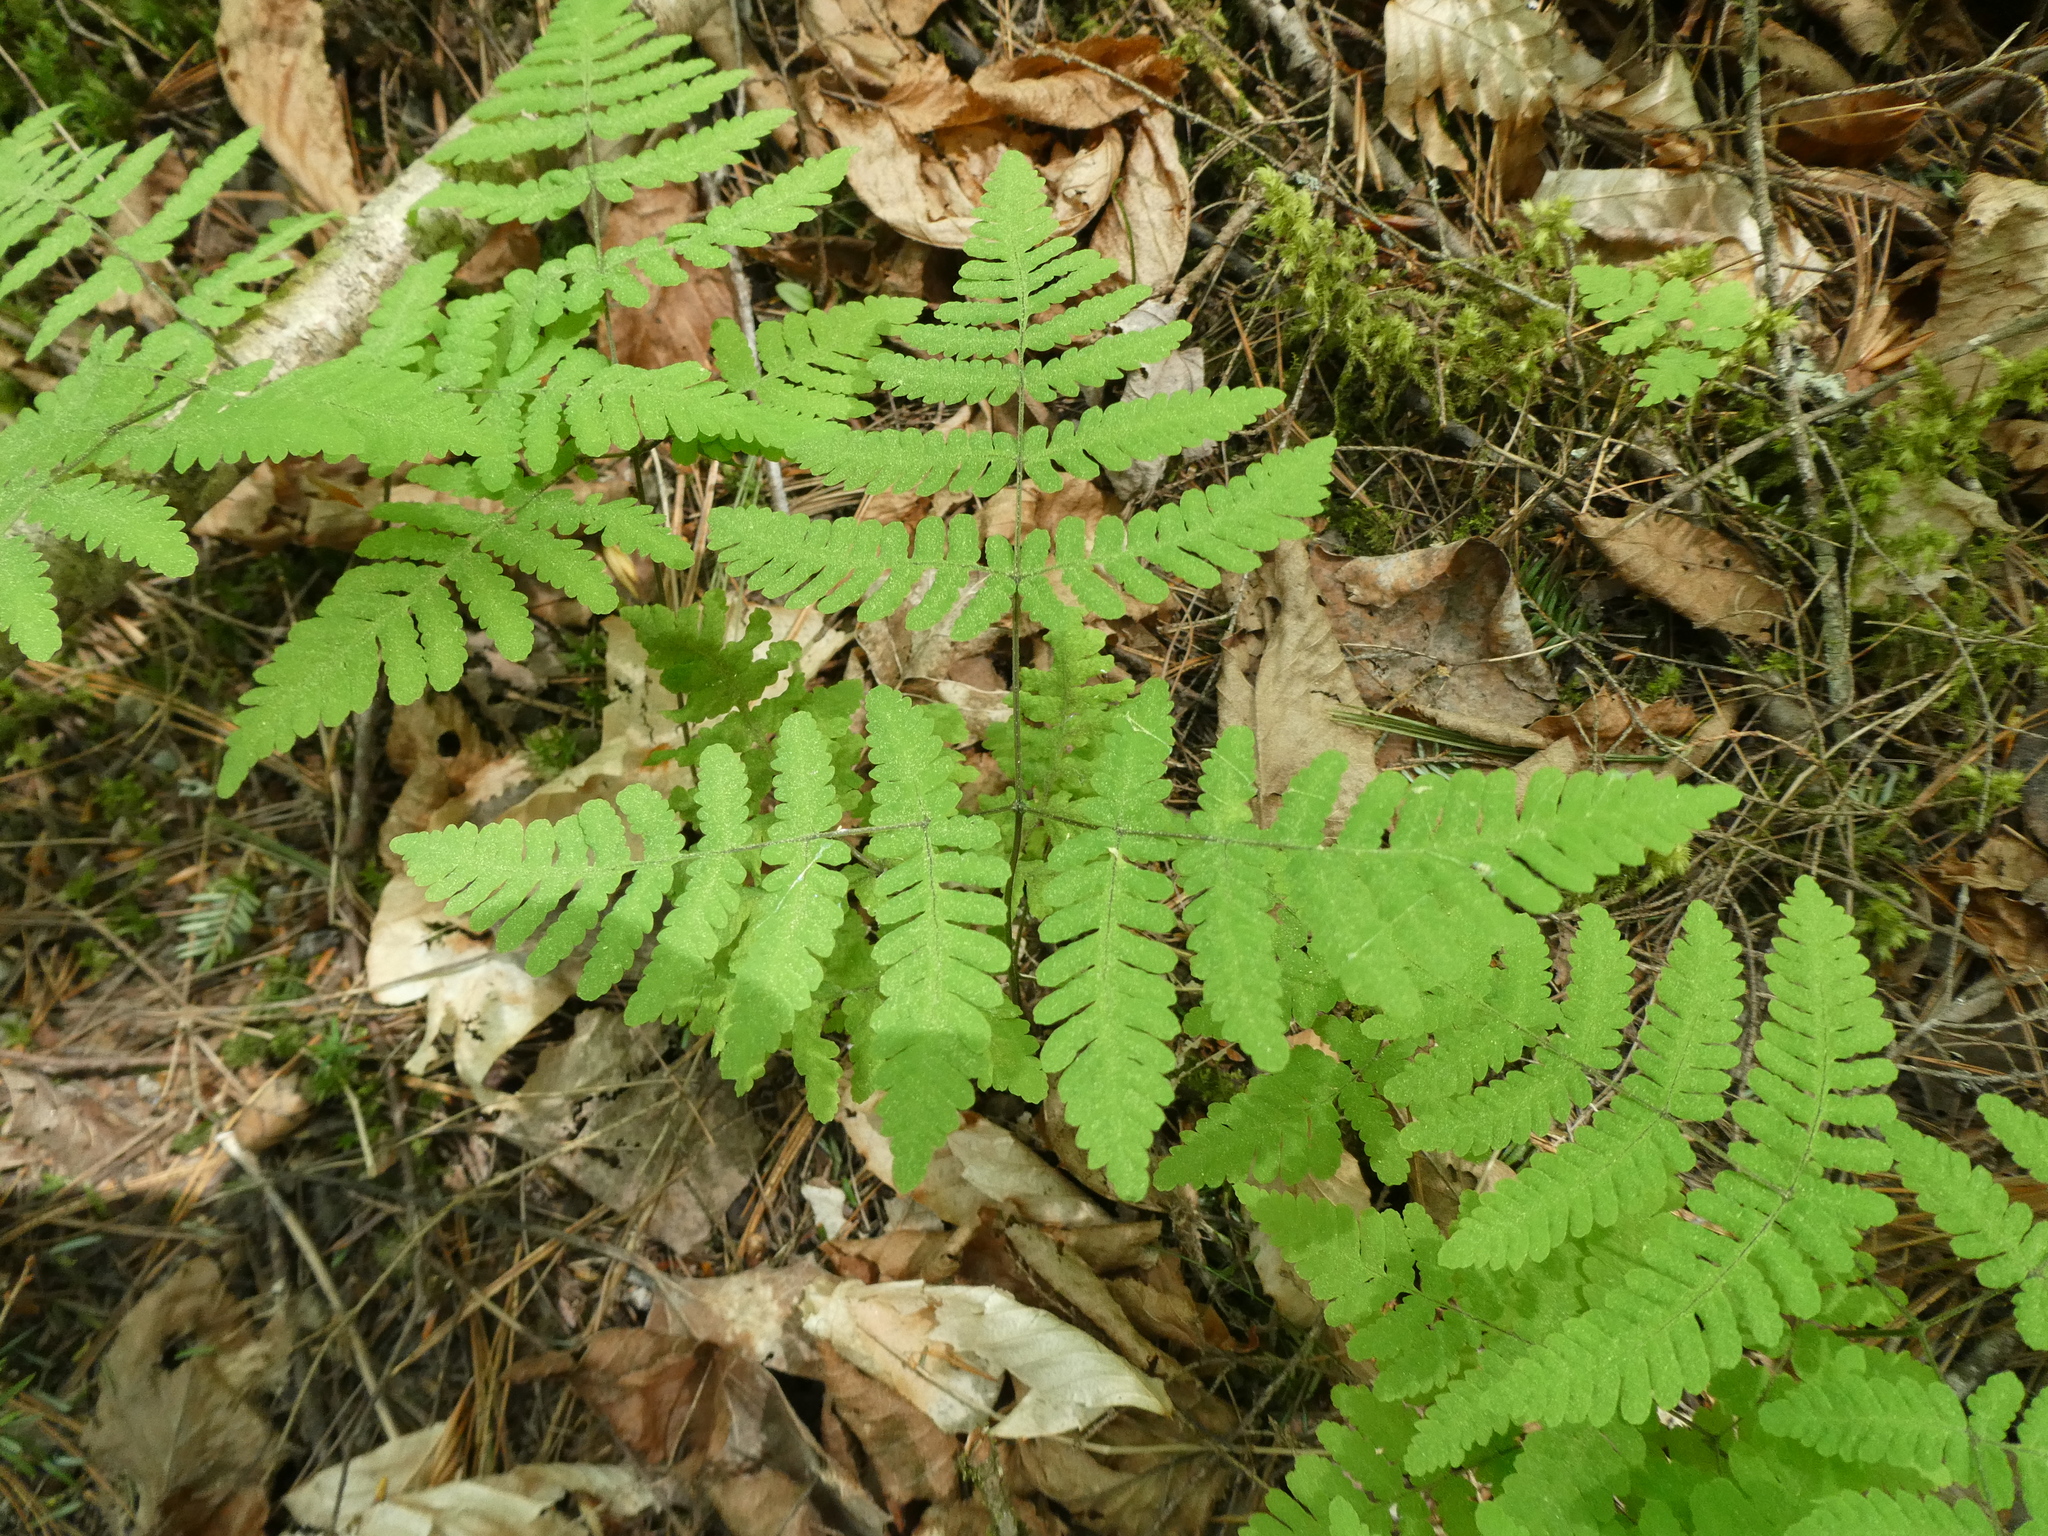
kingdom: Plantae
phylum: Tracheophyta
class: Polypodiopsida
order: Polypodiales
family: Cystopteridaceae
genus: Gymnocarpium
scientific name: Gymnocarpium dryopteris
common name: Oak fern
